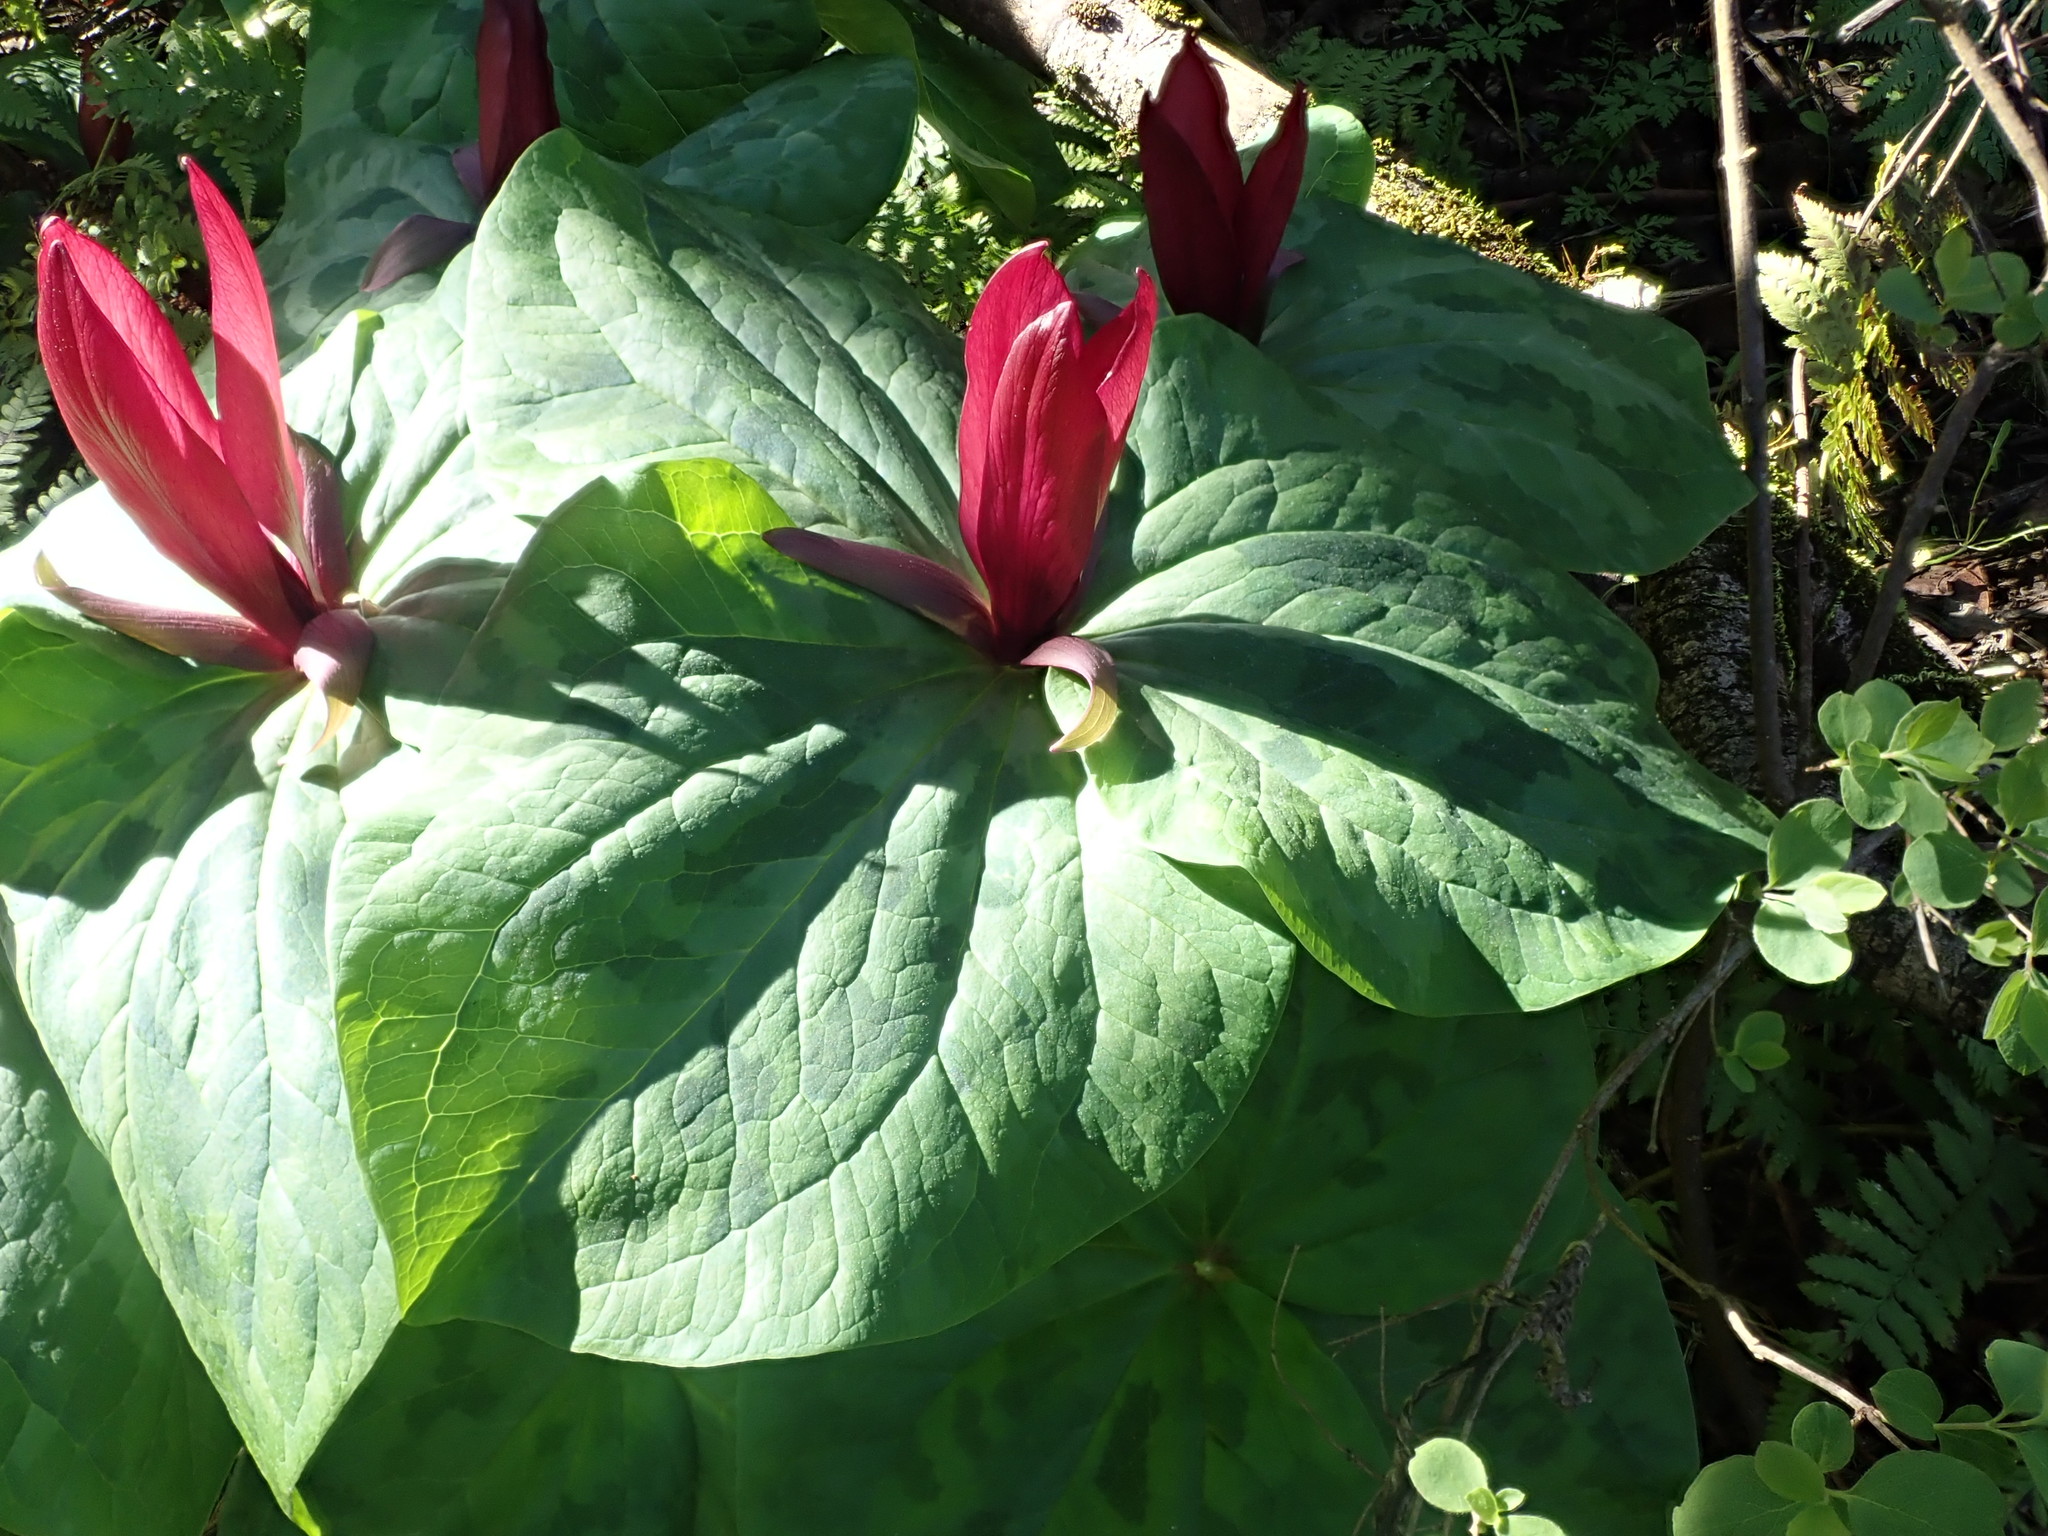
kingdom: Plantae
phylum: Tracheophyta
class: Liliopsida
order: Liliales
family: Melanthiaceae
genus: Trillium
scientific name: Trillium chloropetalum
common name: Giant trillium
